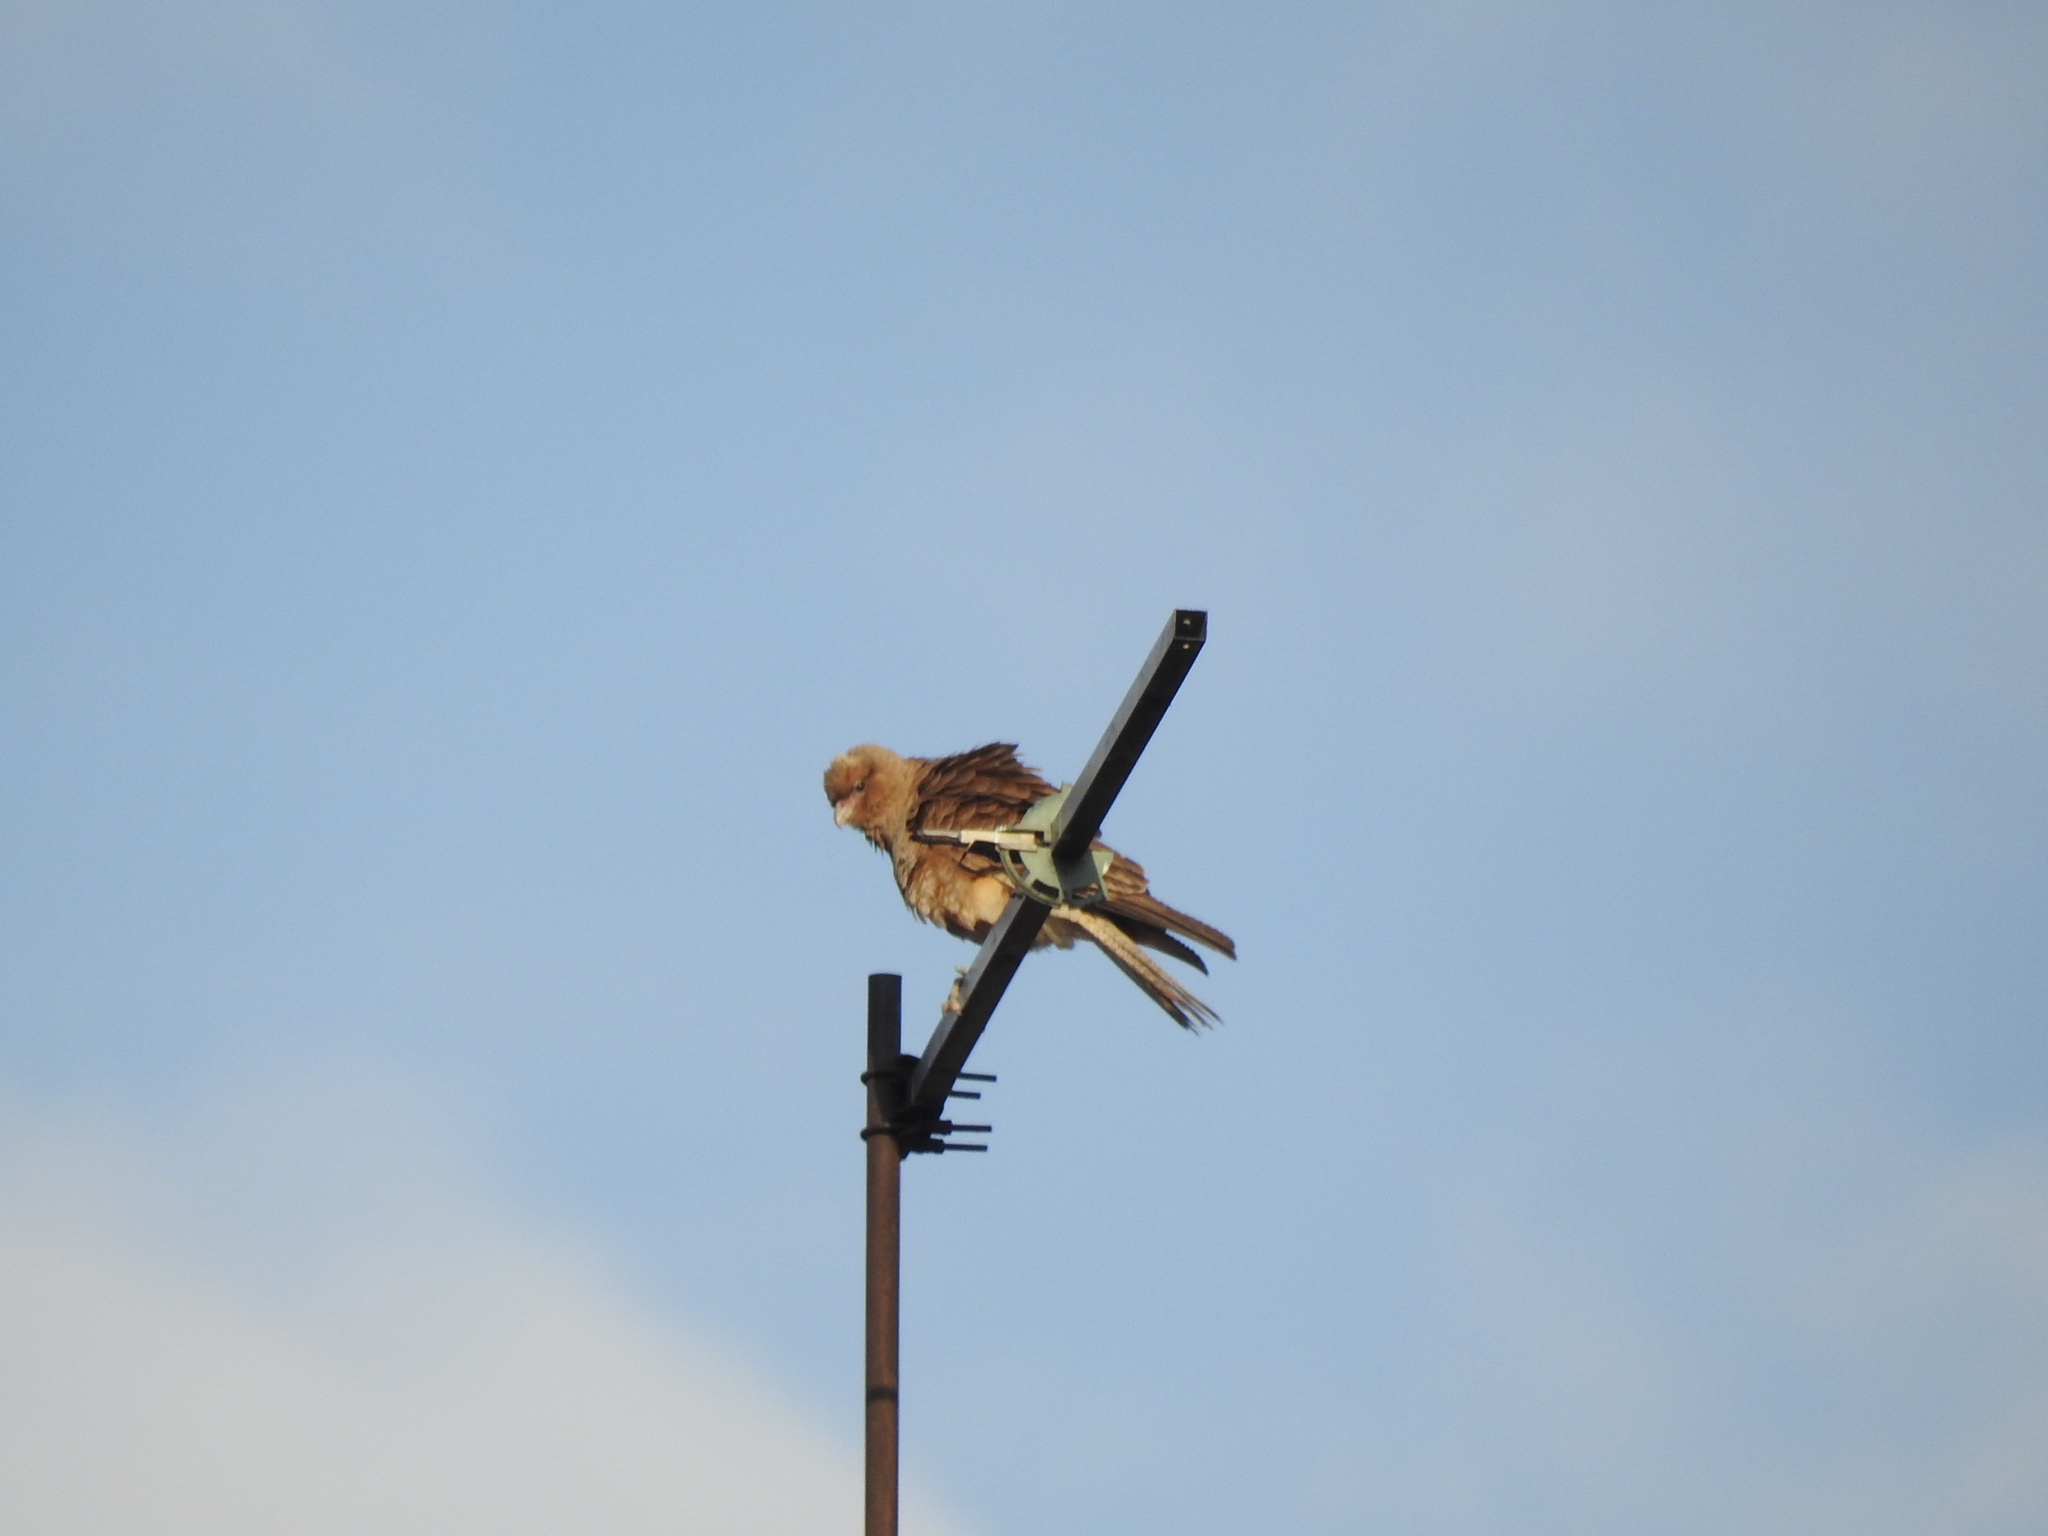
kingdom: Animalia
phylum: Chordata
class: Aves
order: Falconiformes
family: Falconidae
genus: Daptrius
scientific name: Daptrius
